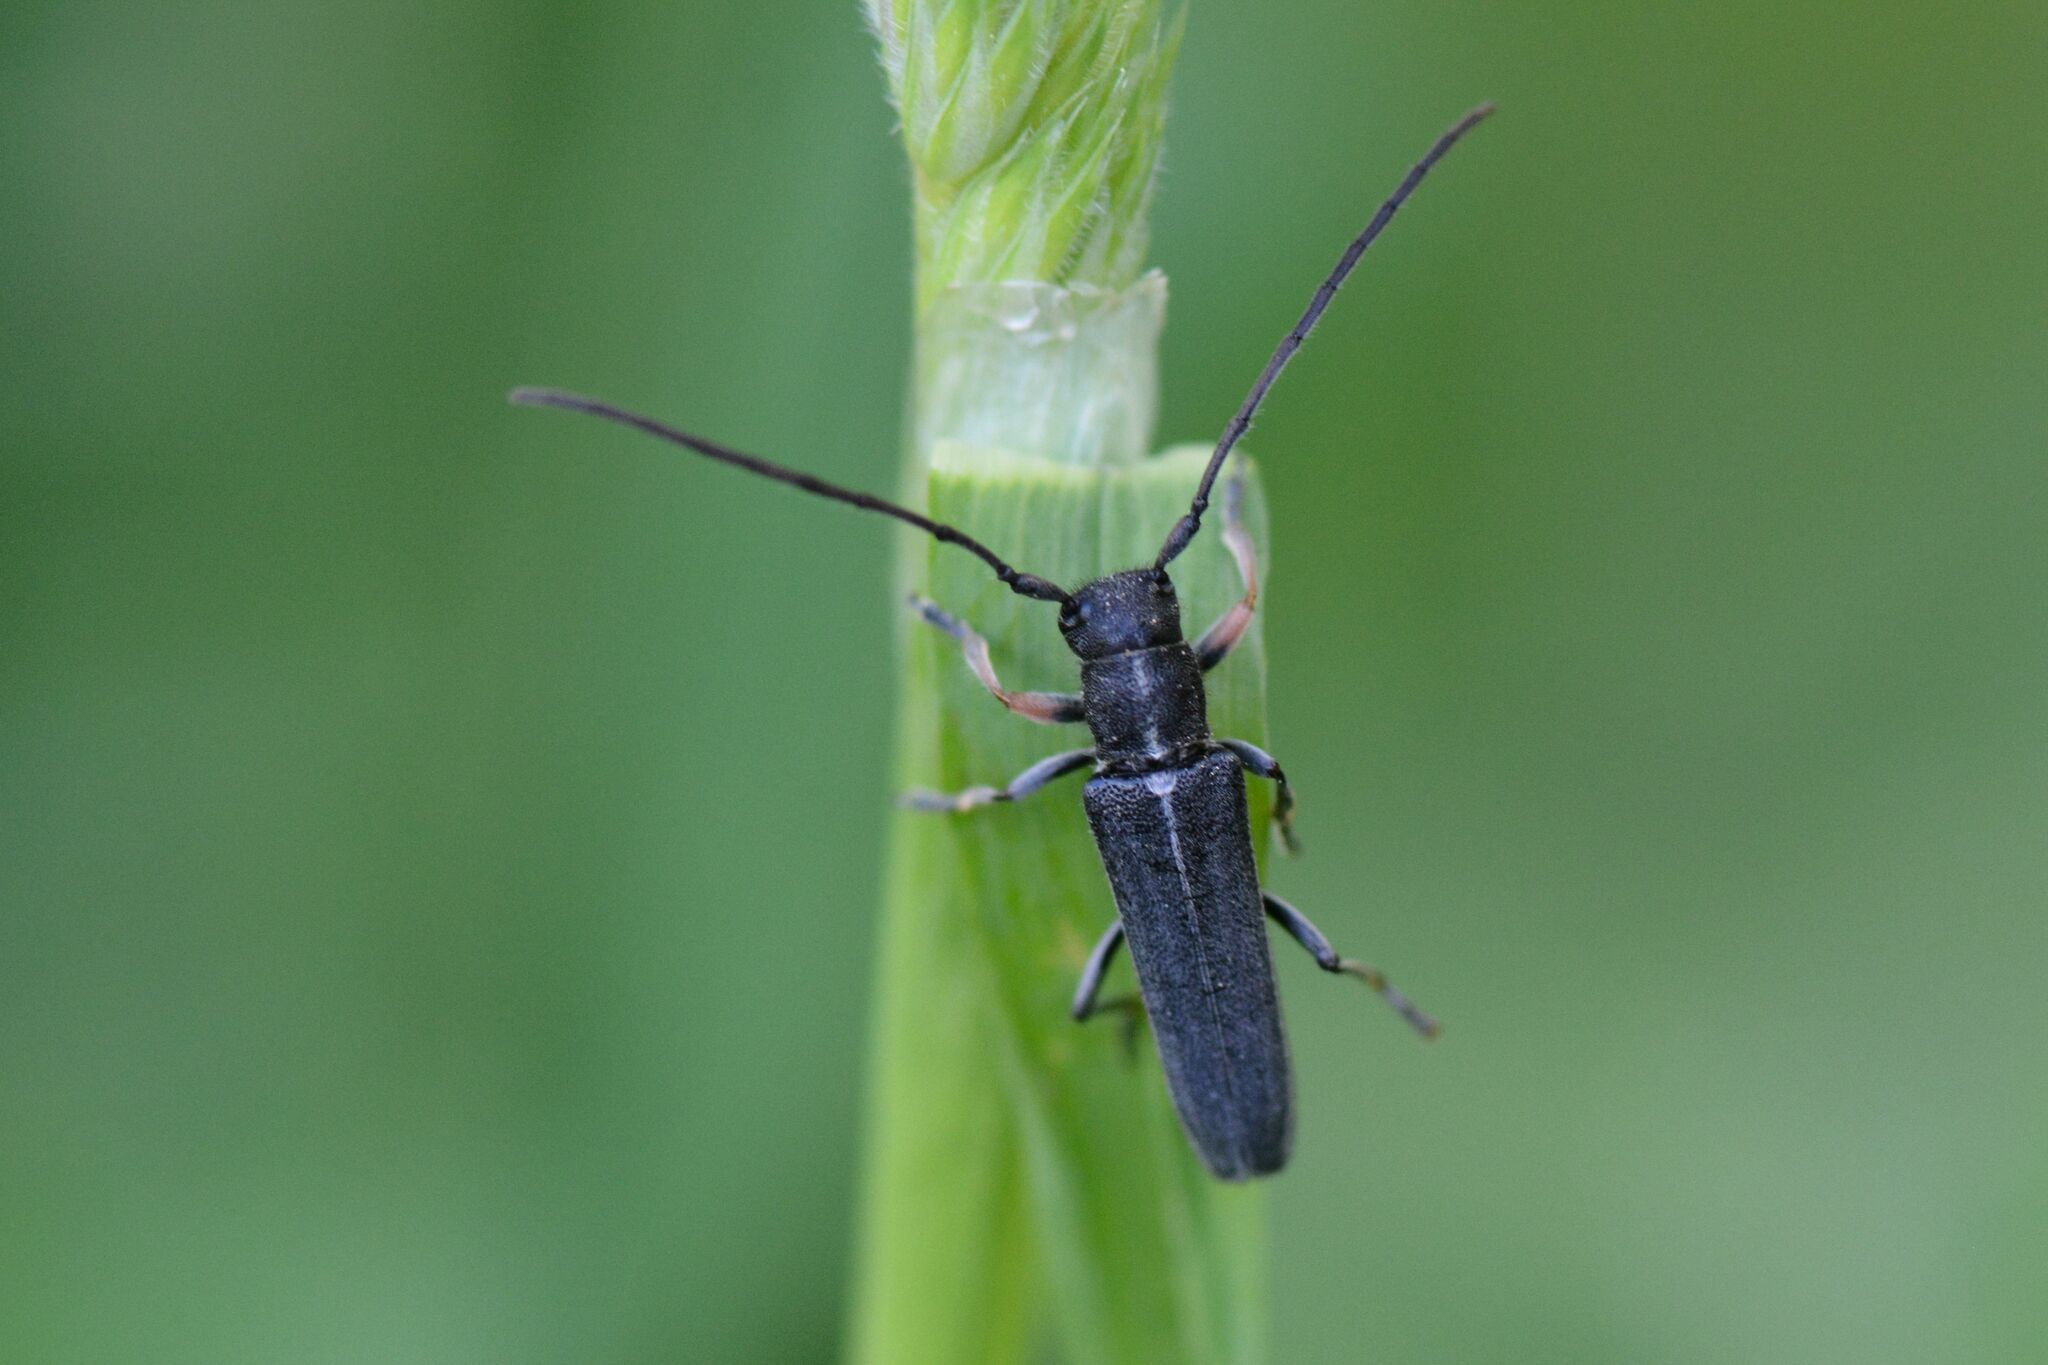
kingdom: Animalia
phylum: Arthropoda
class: Insecta
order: Coleoptera
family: Cerambycidae
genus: Phytoecia
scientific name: Phytoecia cylindrica
